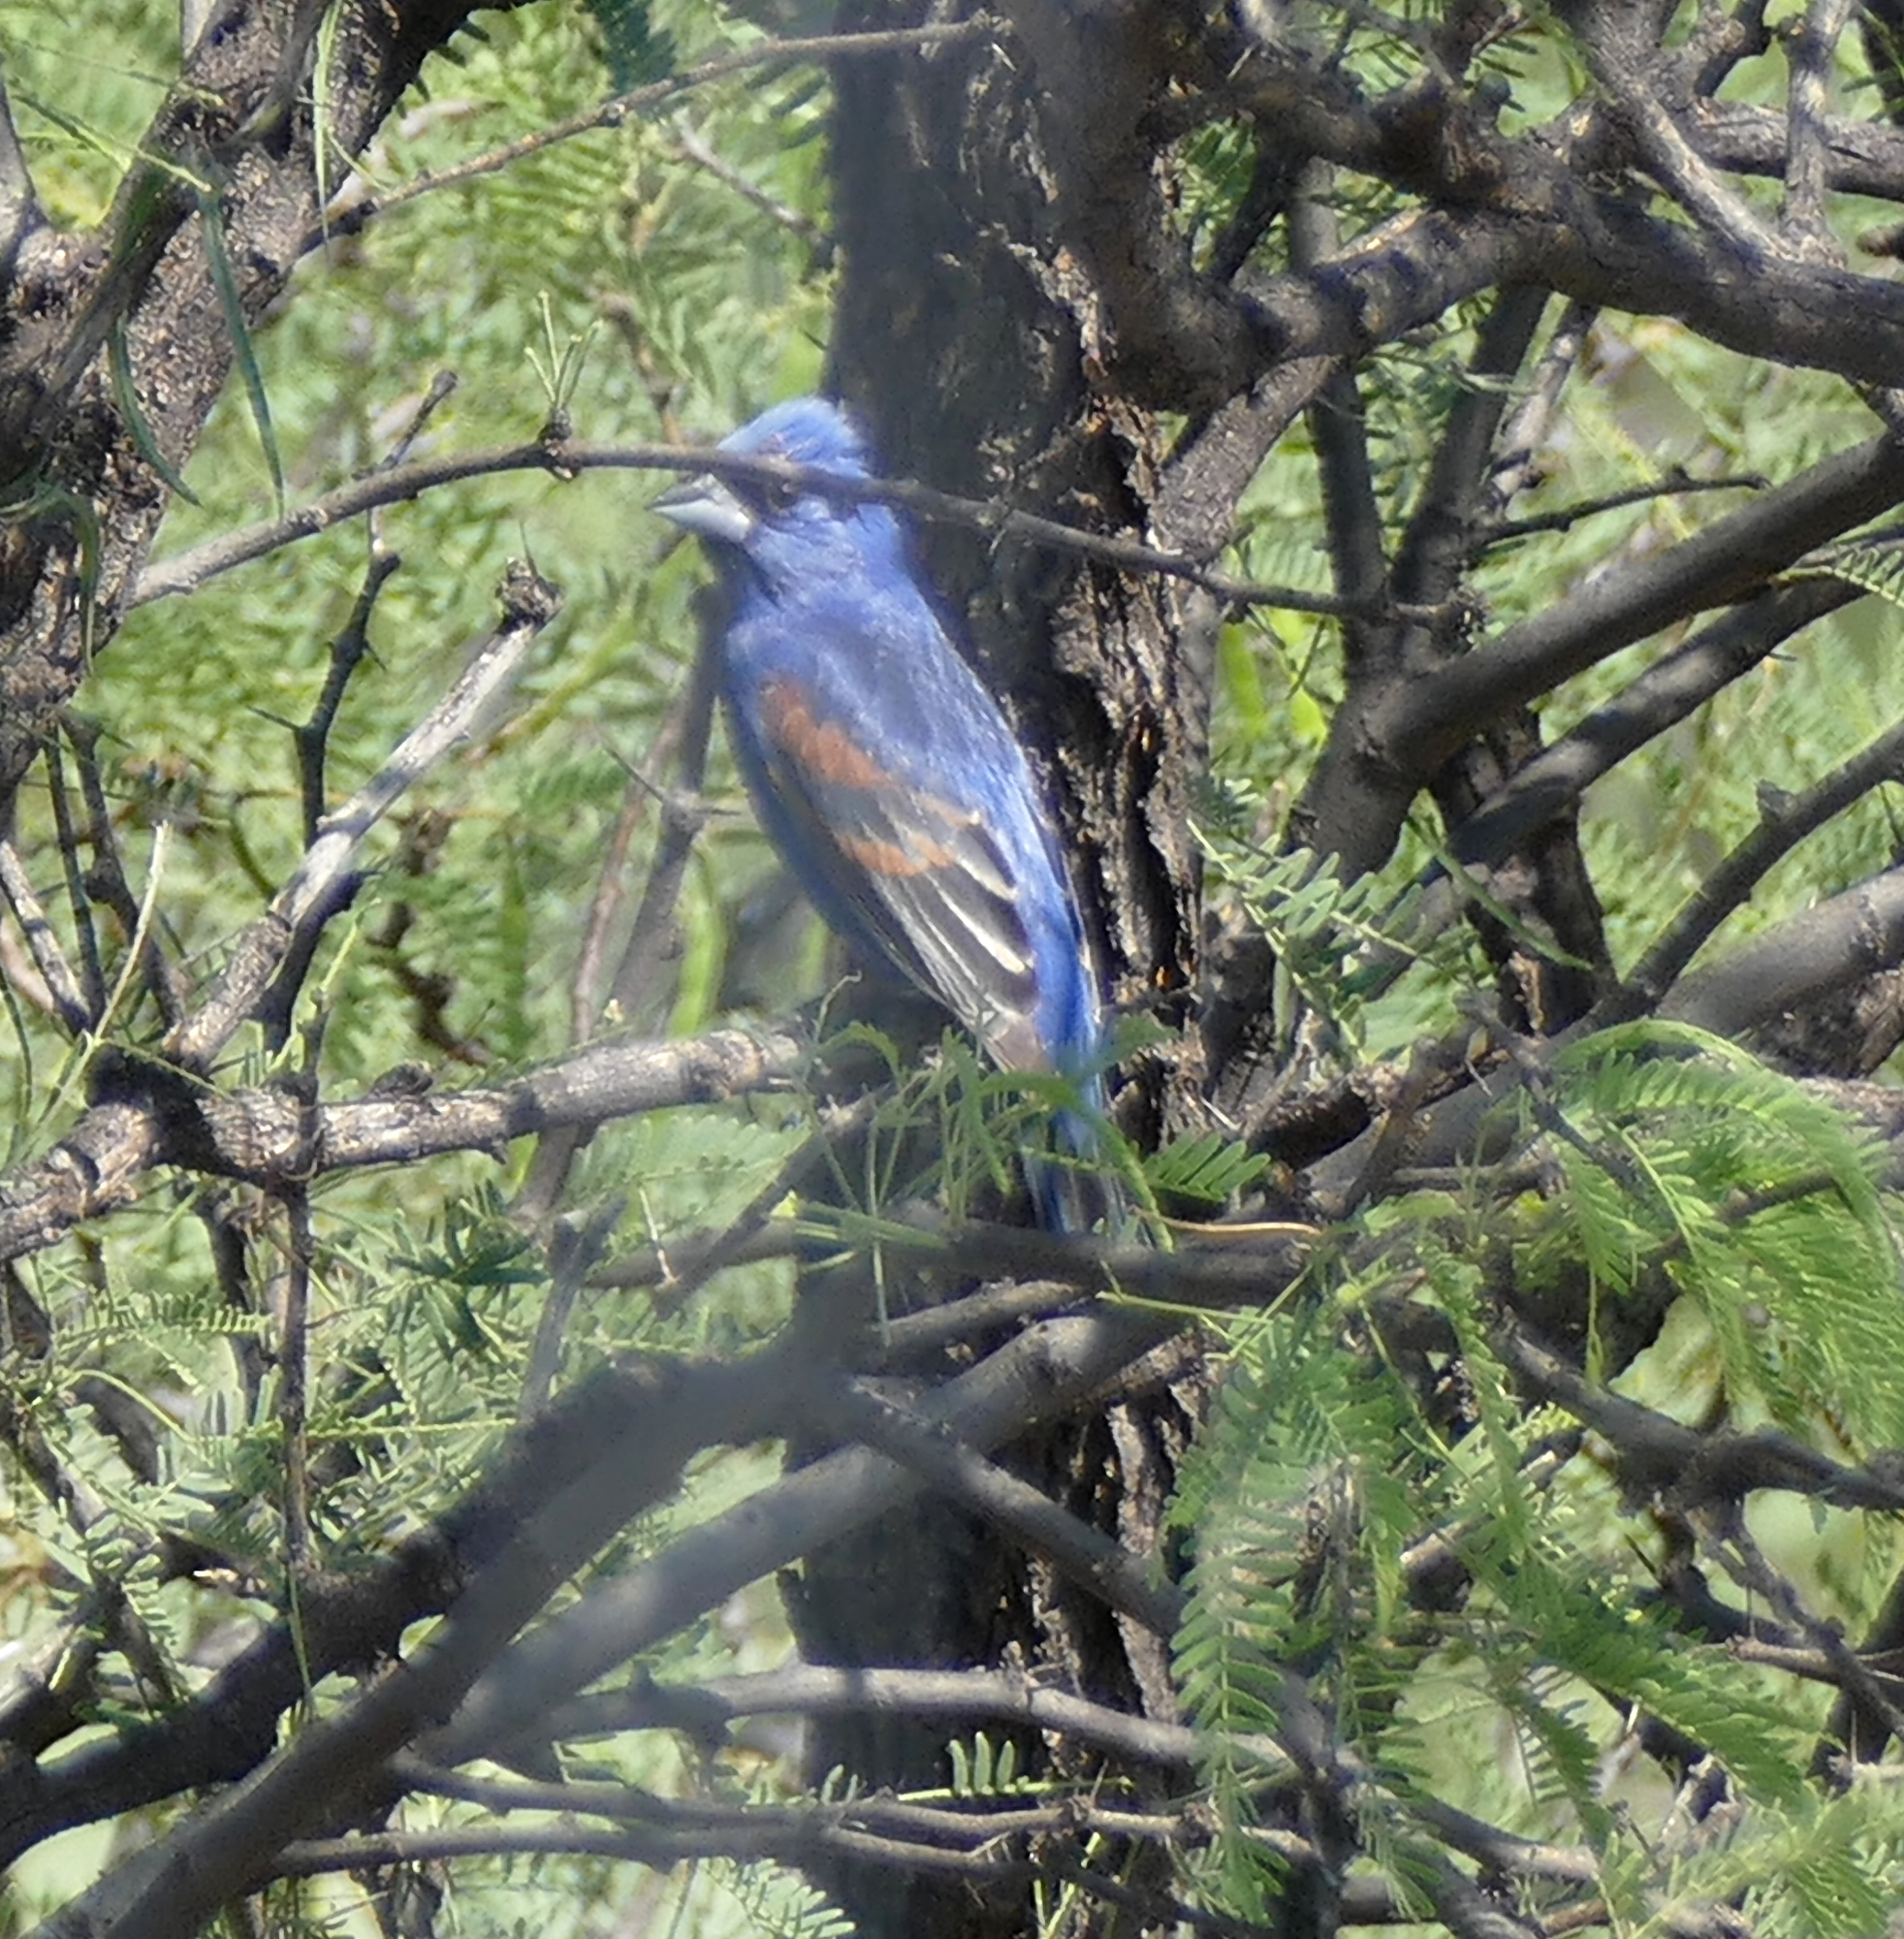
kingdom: Animalia
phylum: Chordata
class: Aves
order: Passeriformes
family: Cardinalidae
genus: Passerina
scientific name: Passerina caerulea
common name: Blue grosbeak
